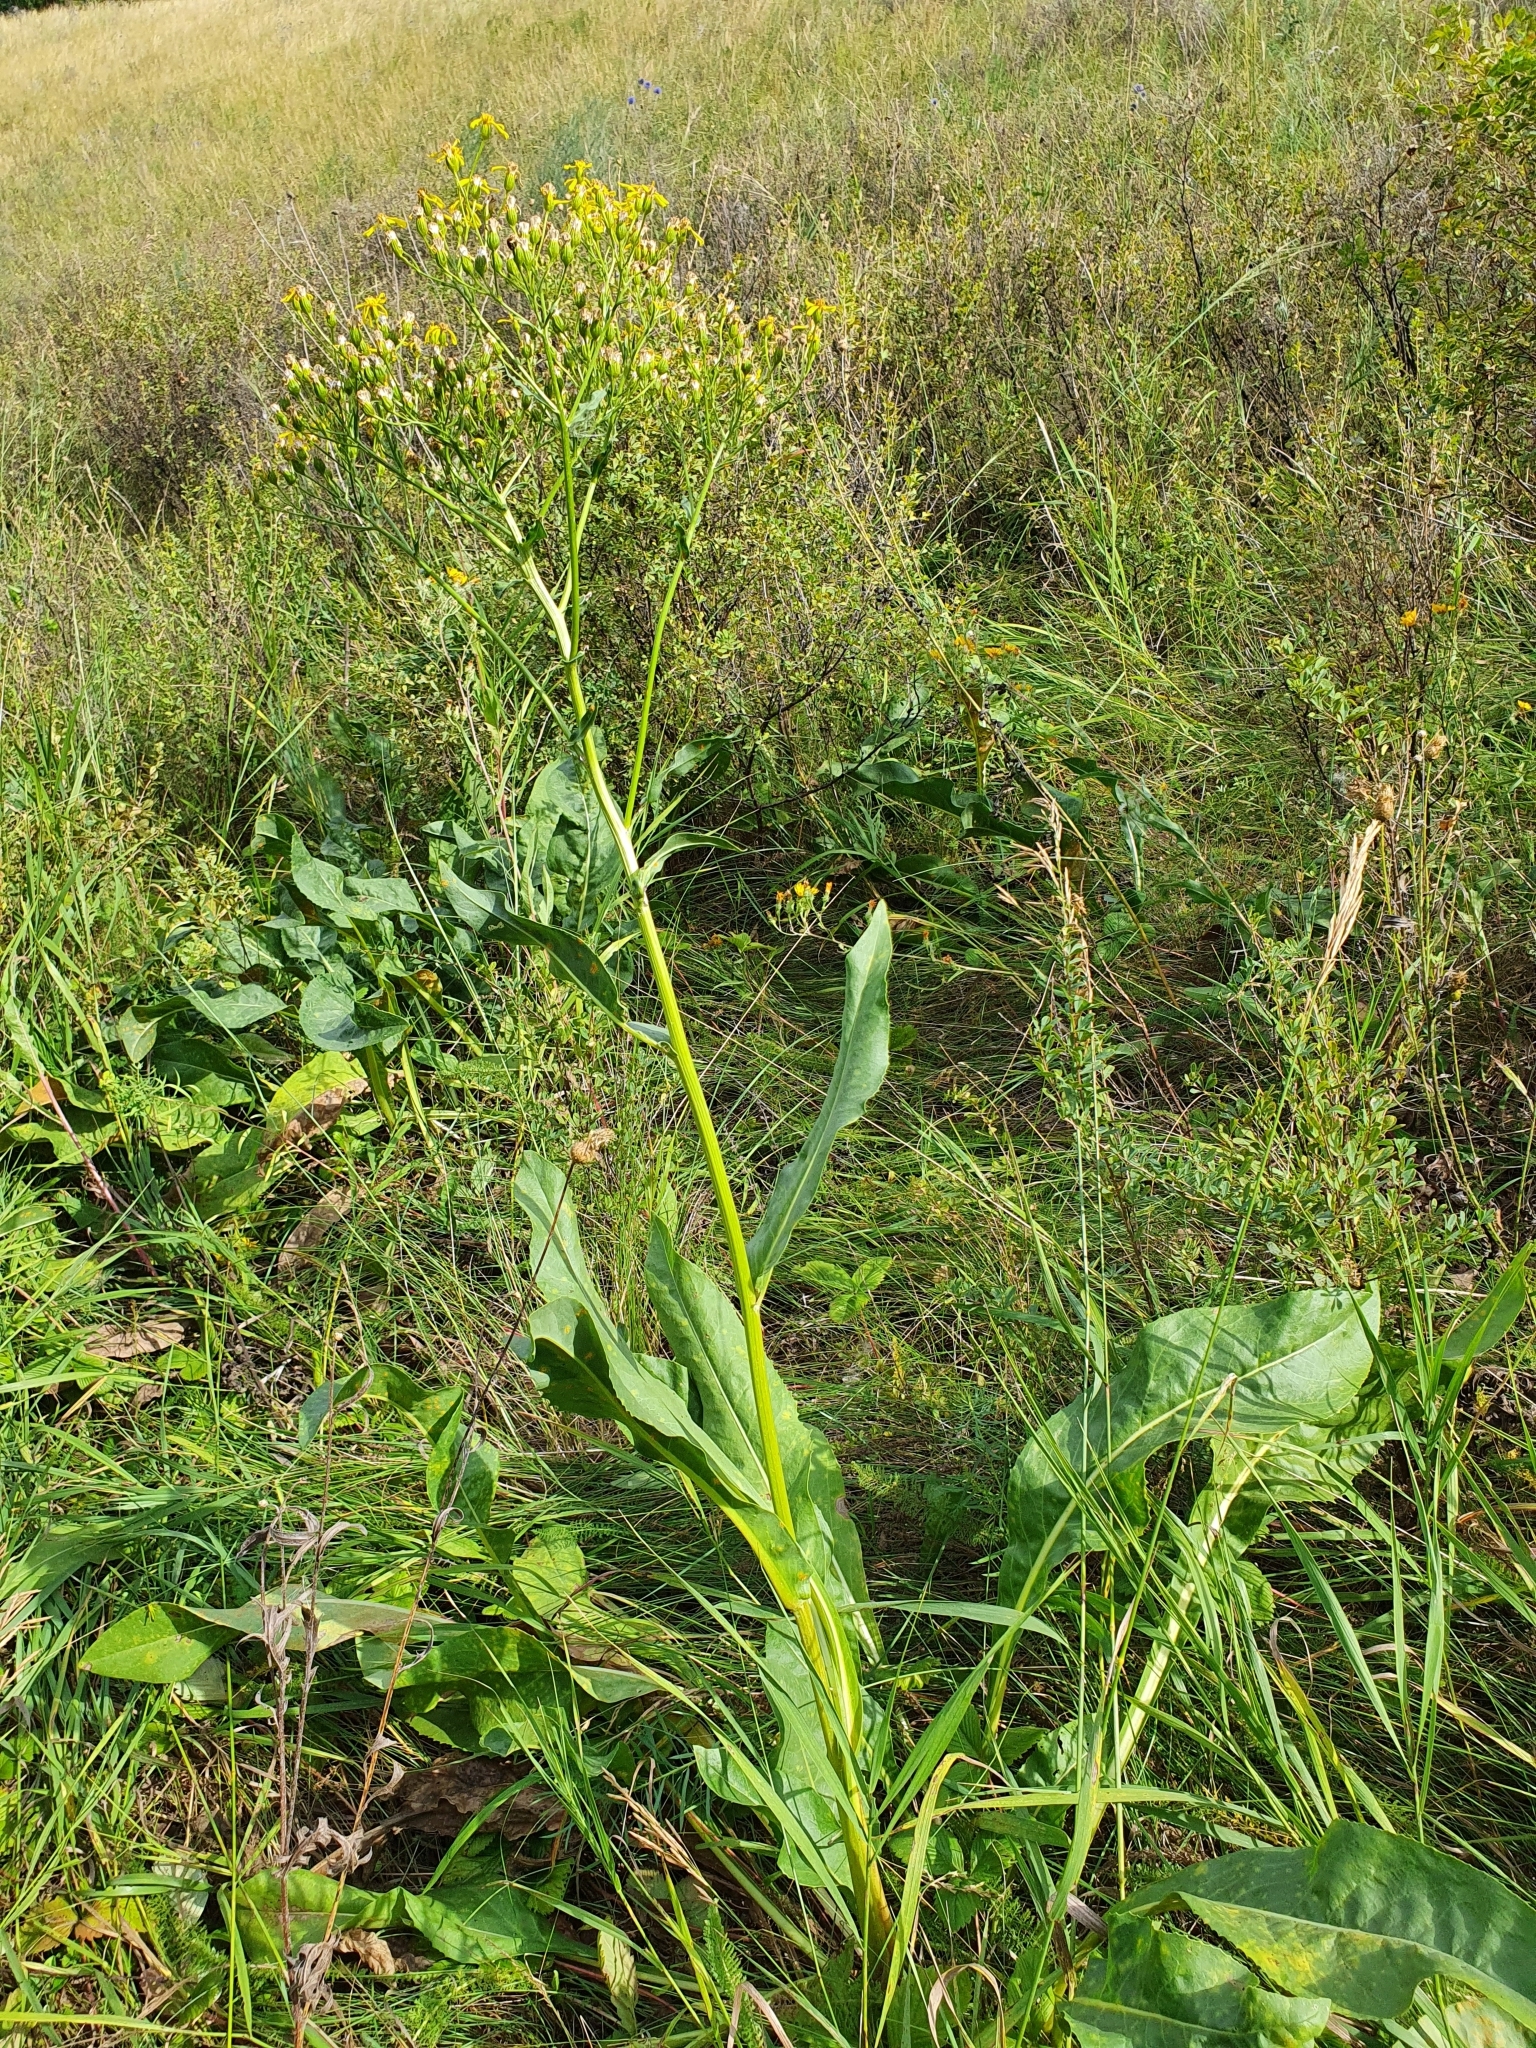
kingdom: Plantae
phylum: Tracheophyta
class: Magnoliopsida
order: Asterales
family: Asteraceae
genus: Senecio
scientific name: Senecio doria
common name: Golden ragwort
